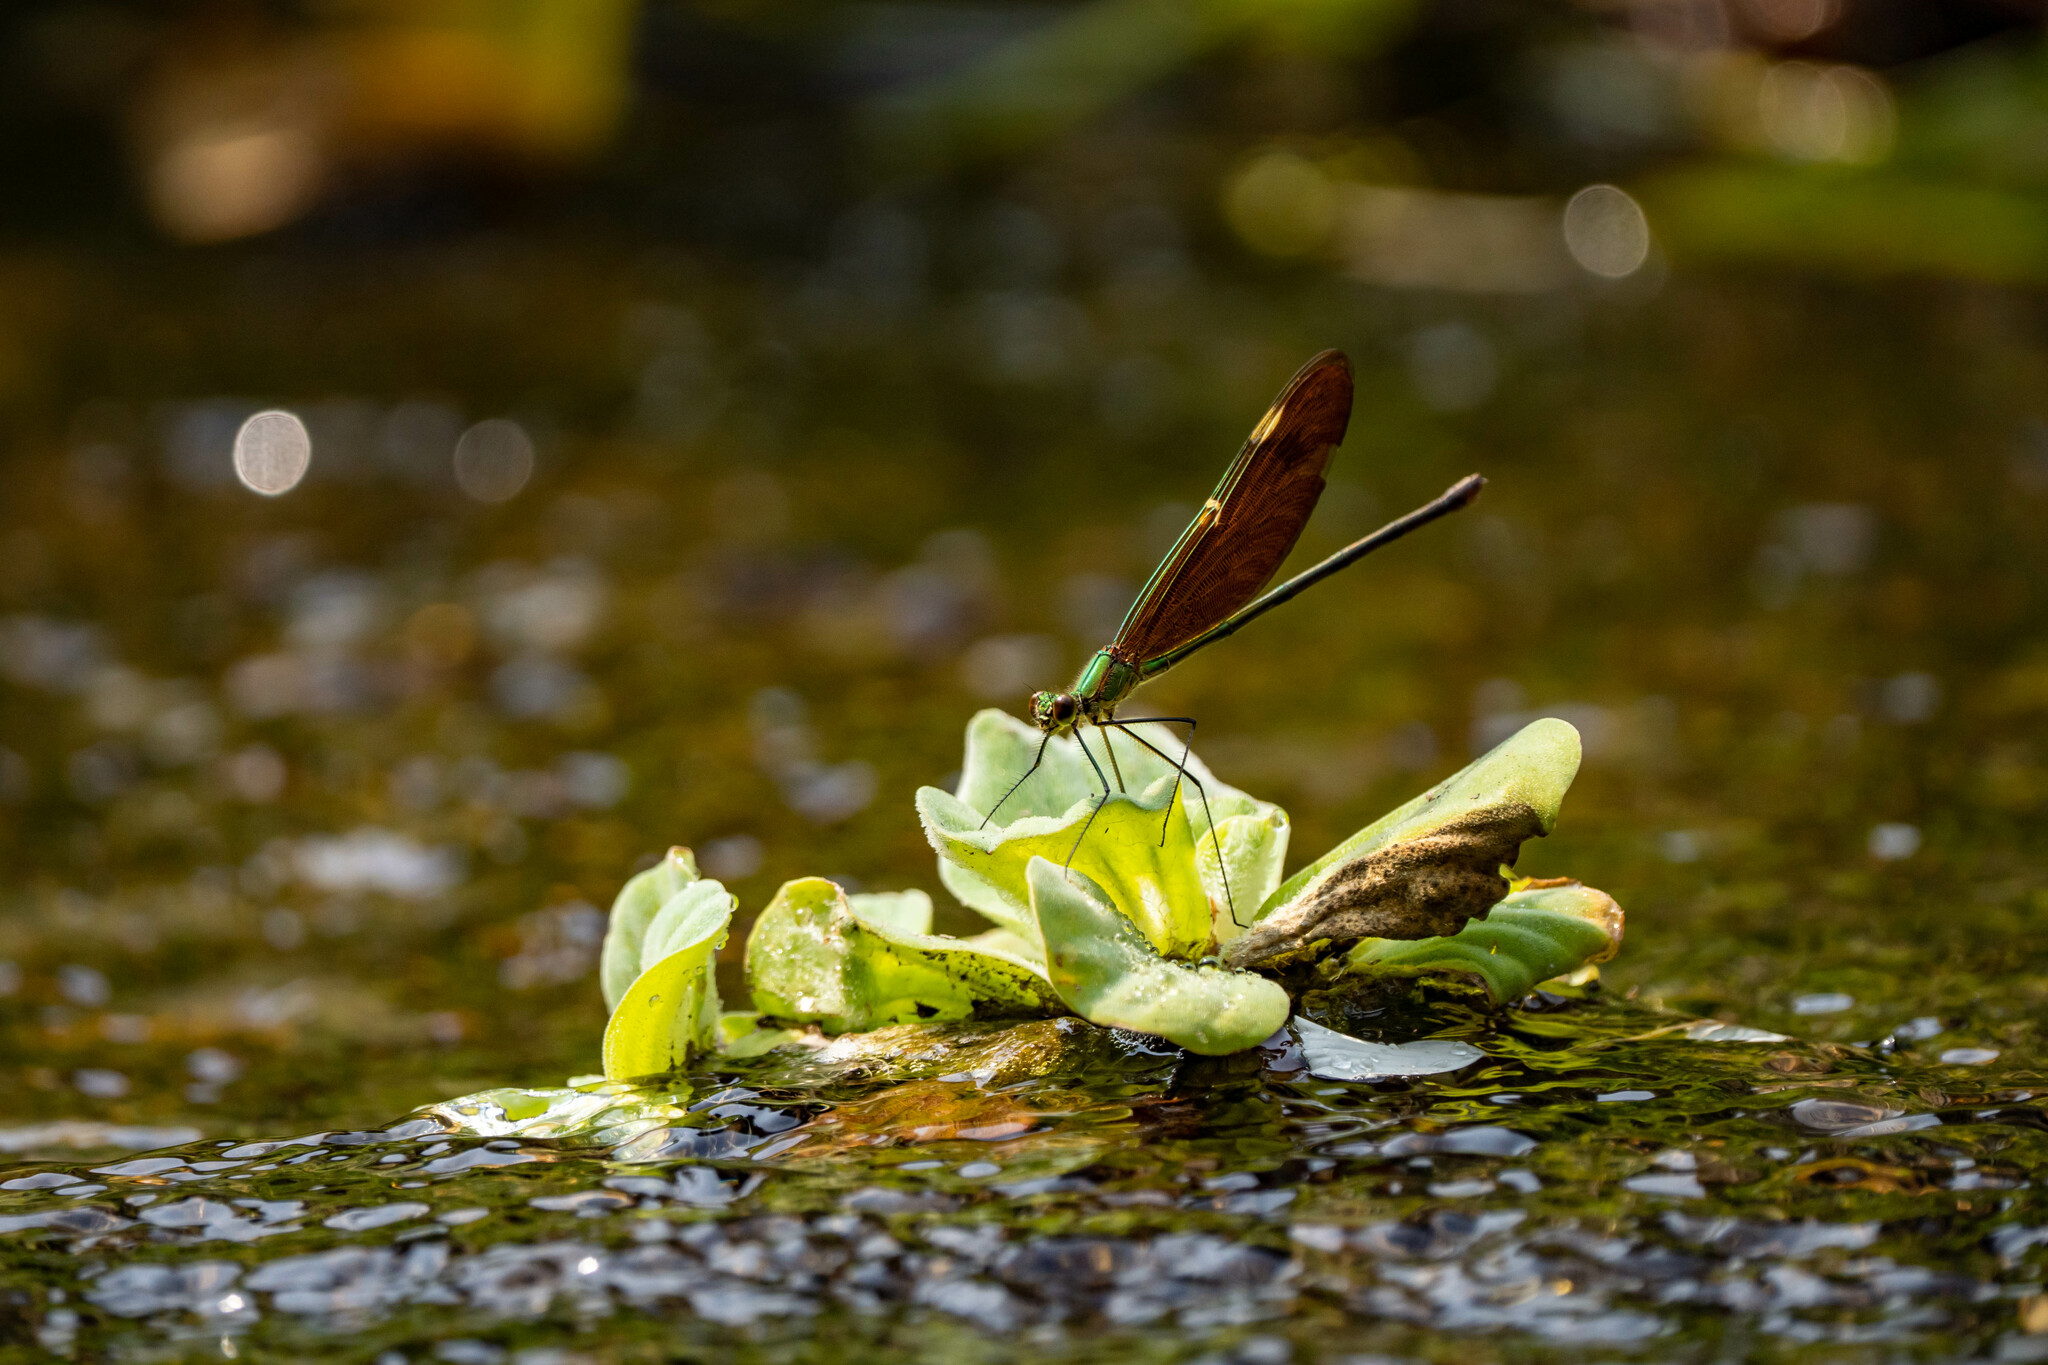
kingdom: Animalia
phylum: Arthropoda
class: Insecta
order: Odonata
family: Calopterygidae
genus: Neurobasis
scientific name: Neurobasis chinensis
